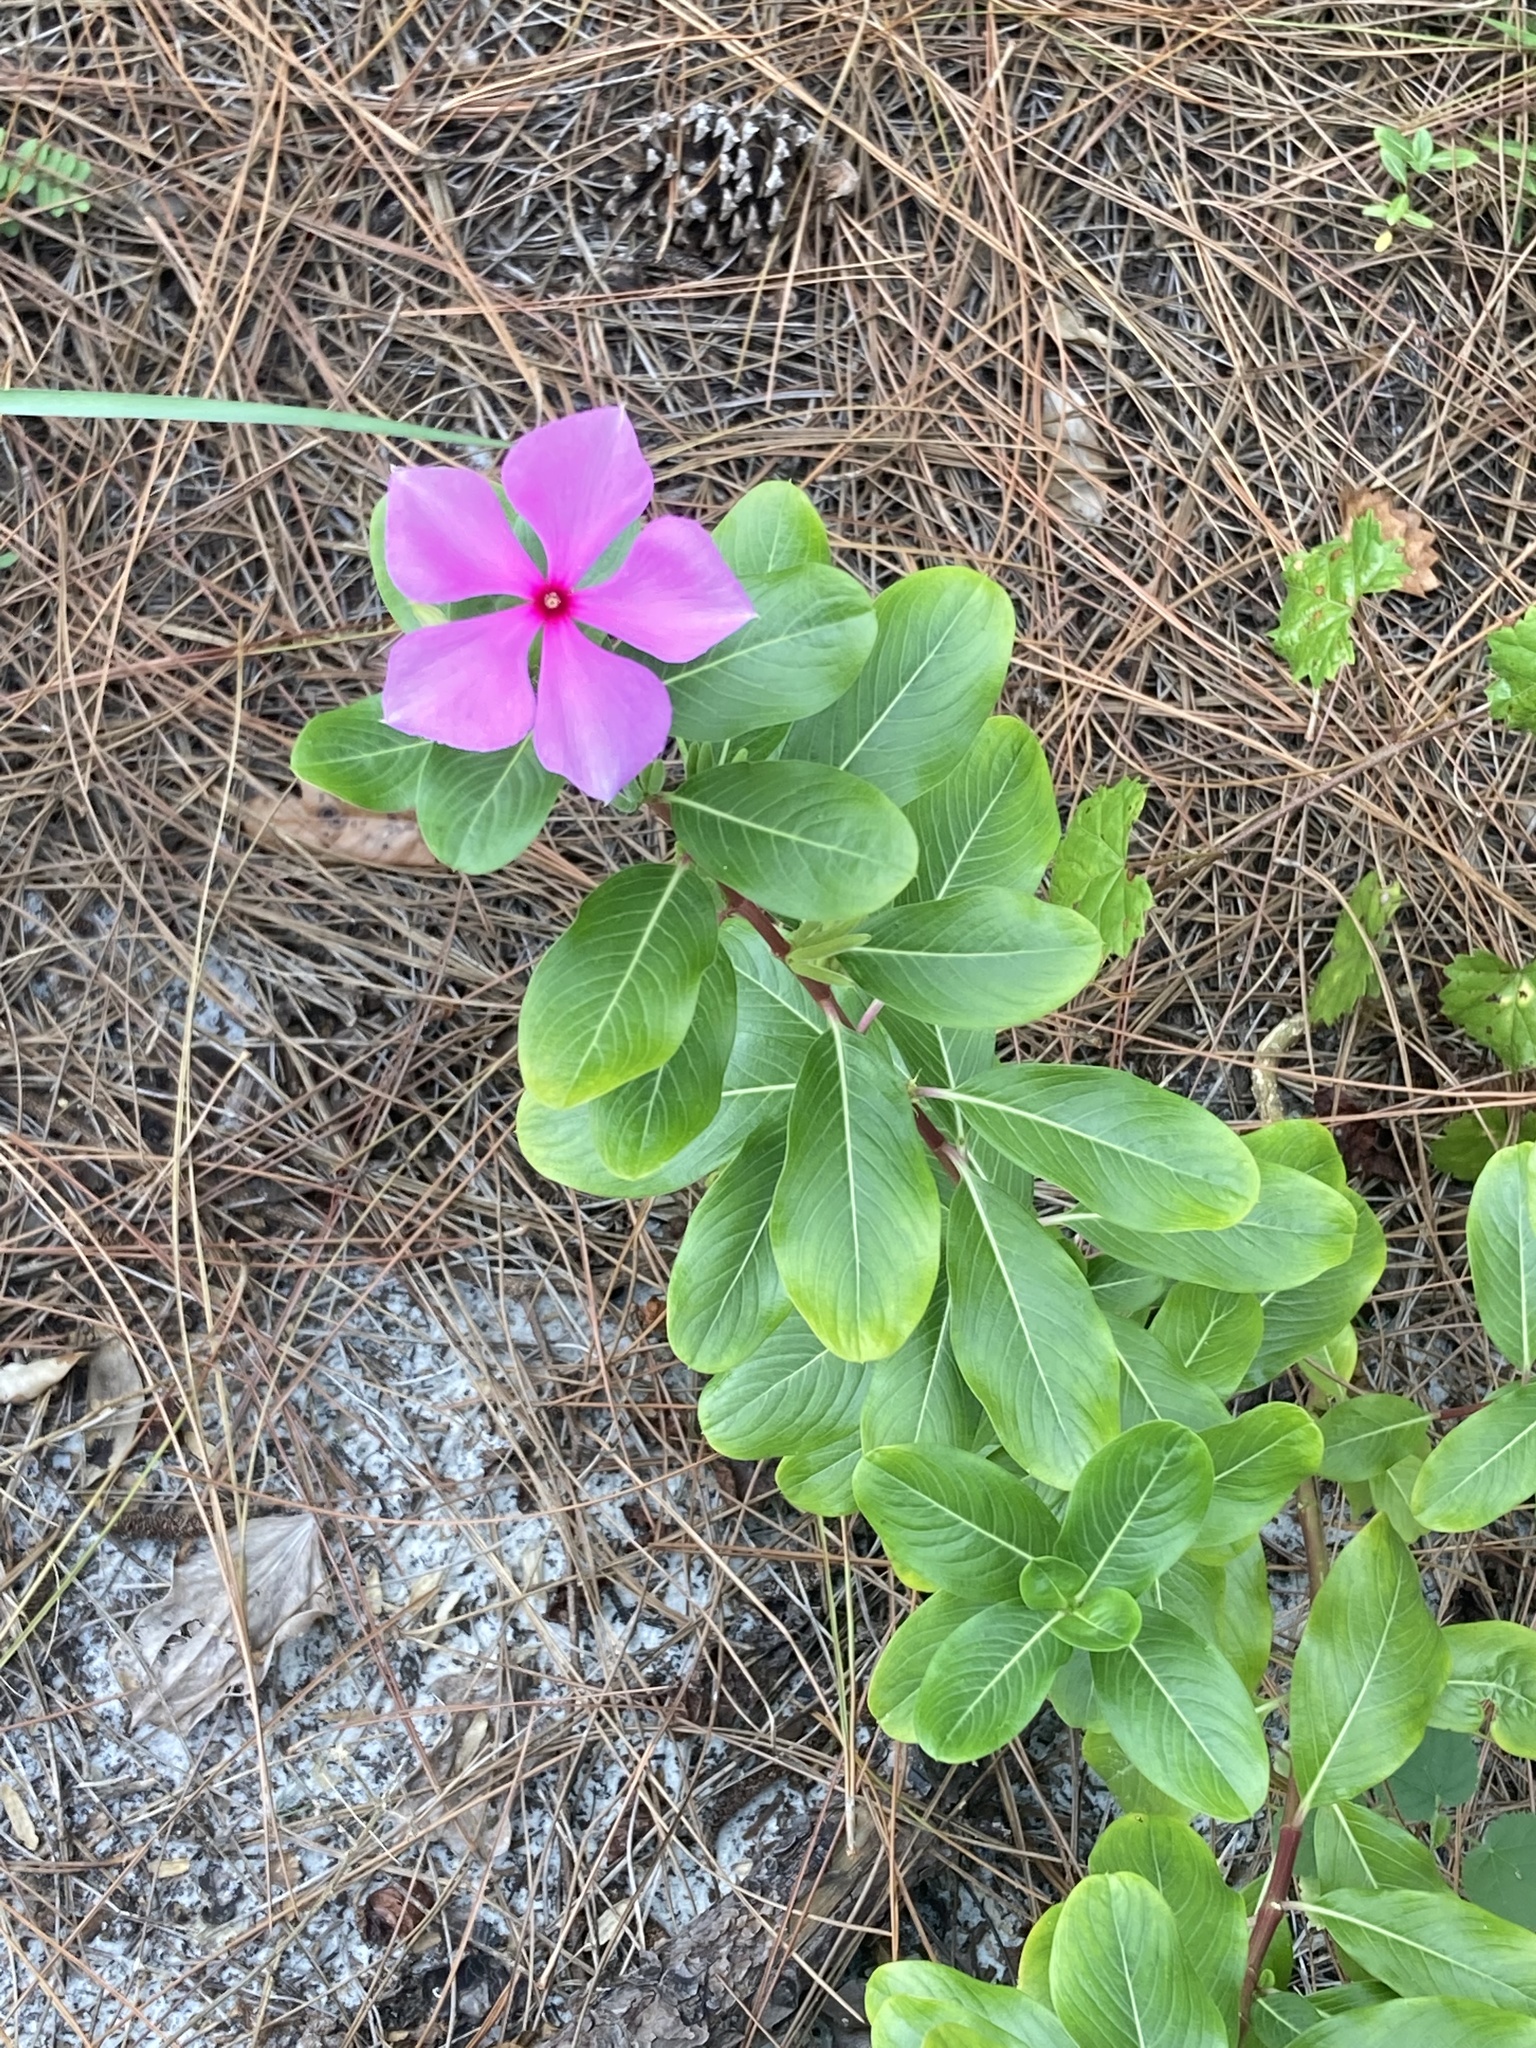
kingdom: Plantae
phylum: Tracheophyta
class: Magnoliopsida
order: Gentianales
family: Apocynaceae
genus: Catharanthus
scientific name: Catharanthus roseus
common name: Madagascar periwinkle
